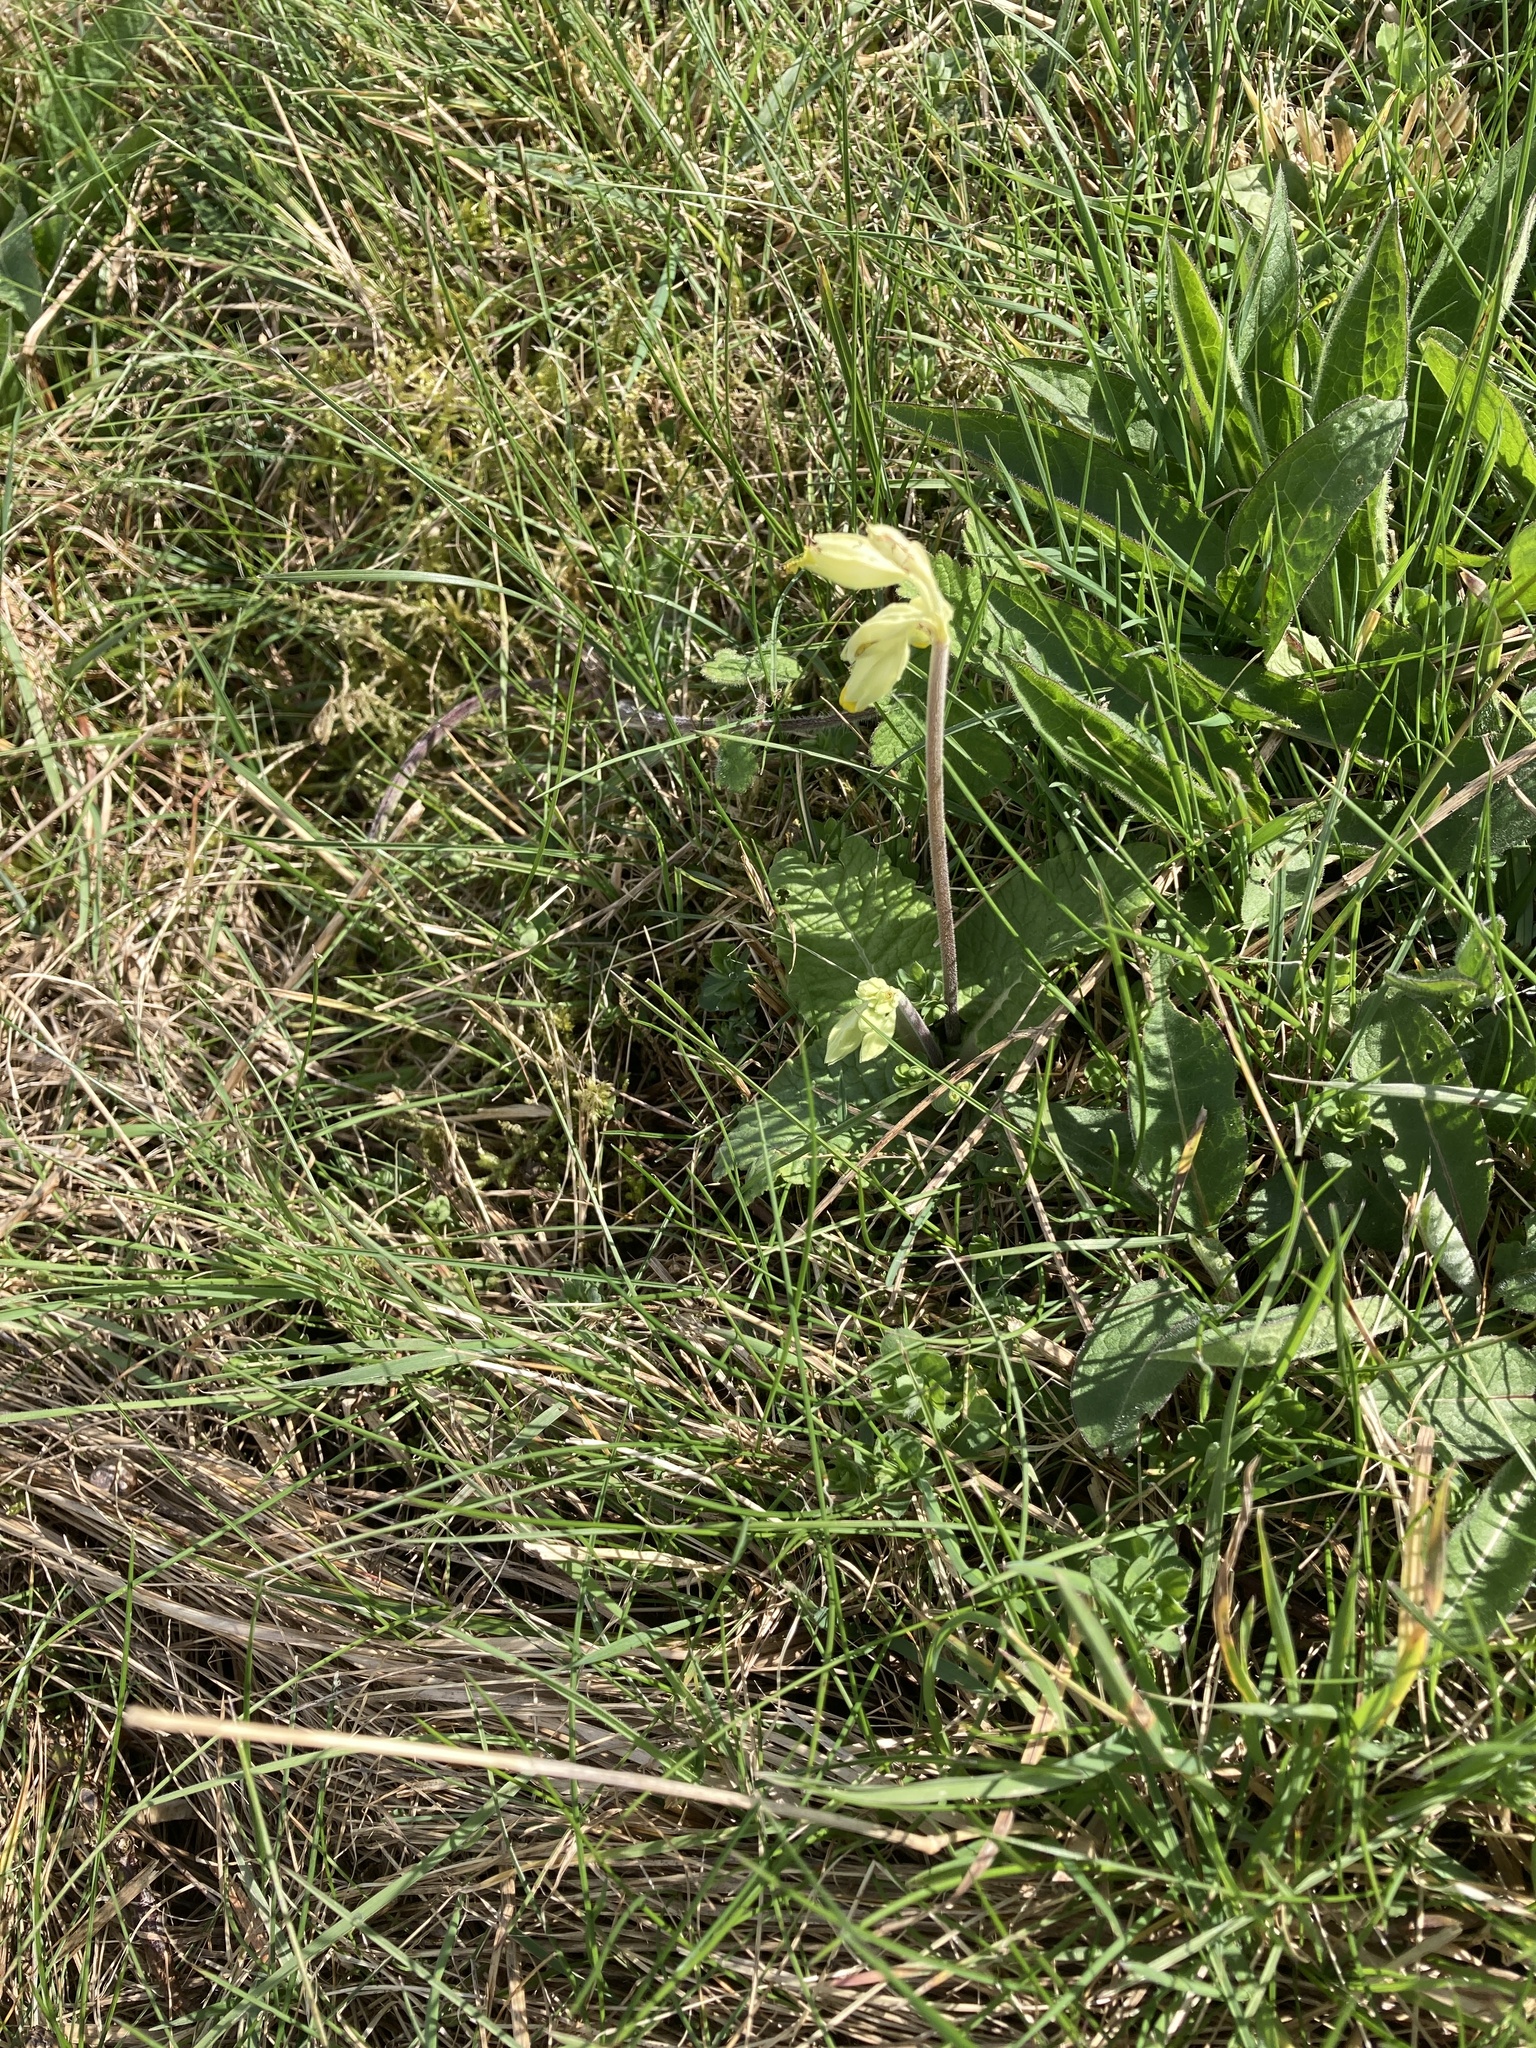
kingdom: Plantae
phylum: Tracheophyta
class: Magnoliopsida
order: Ericales
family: Primulaceae
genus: Primula
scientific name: Primula veris
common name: Cowslip
